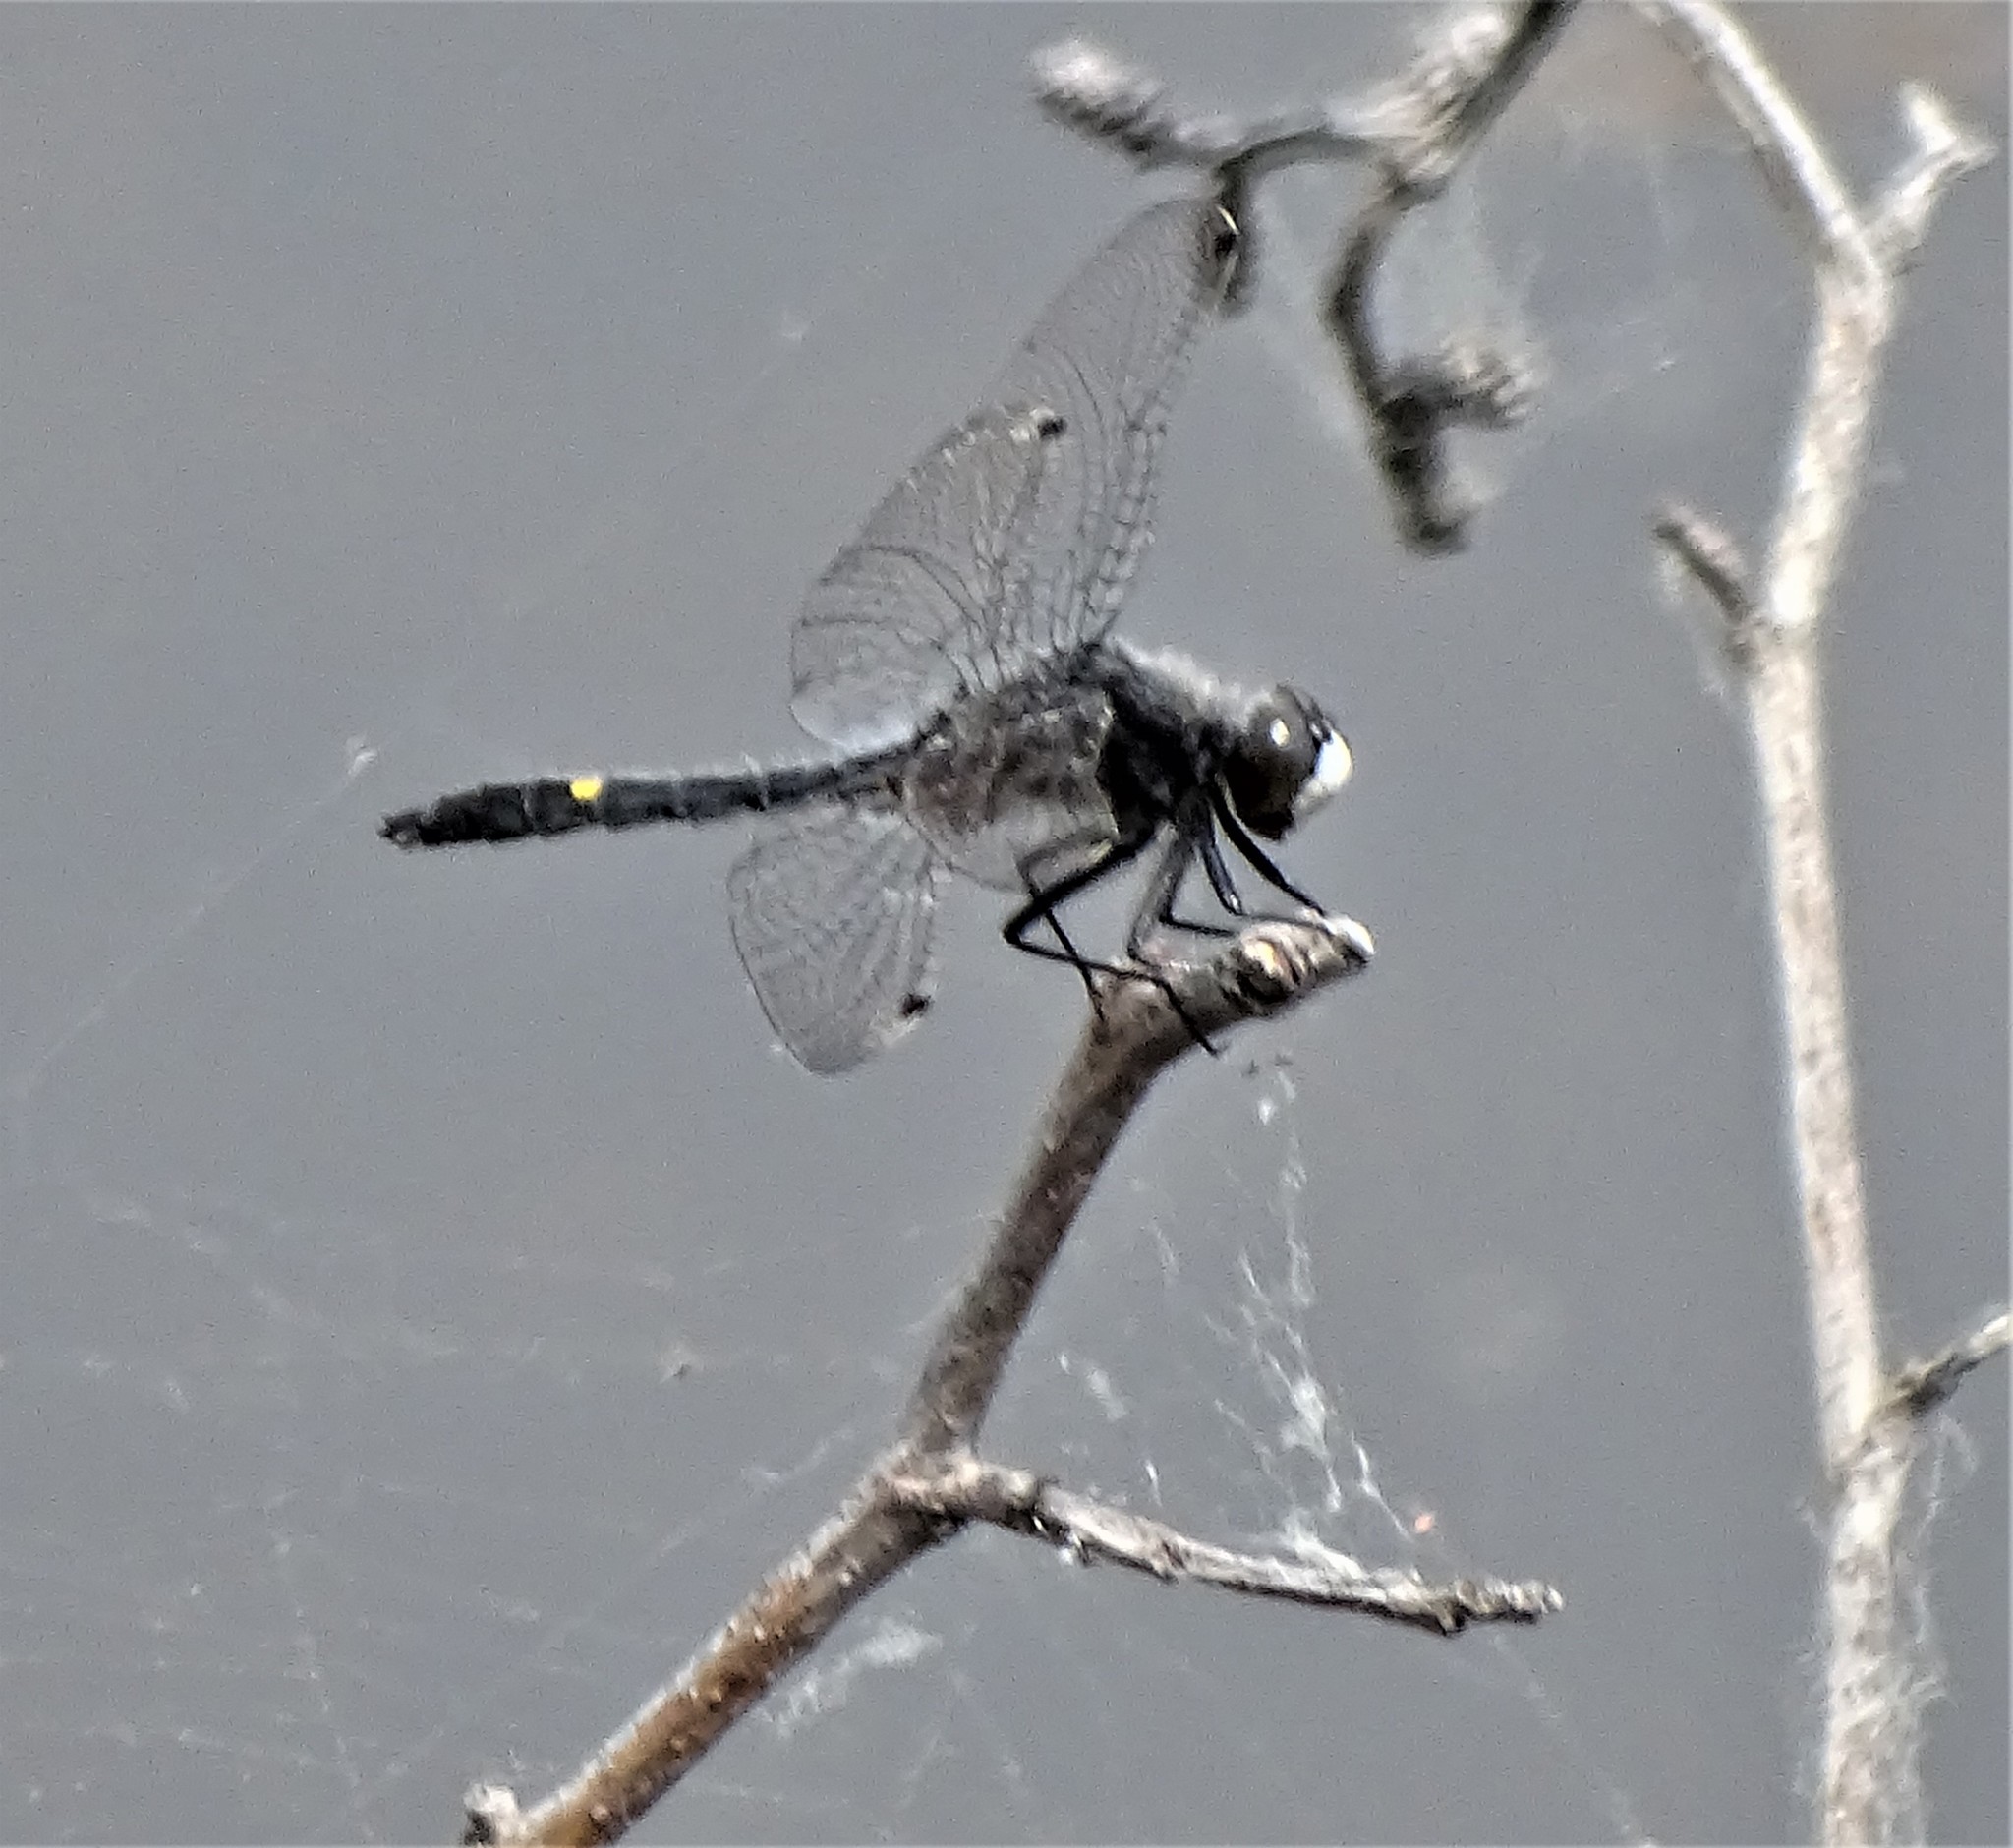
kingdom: Animalia
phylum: Arthropoda
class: Insecta
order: Odonata
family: Libellulidae
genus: Leucorrhinia
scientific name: Leucorrhinia intacta
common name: Dot-tailed whiteface
